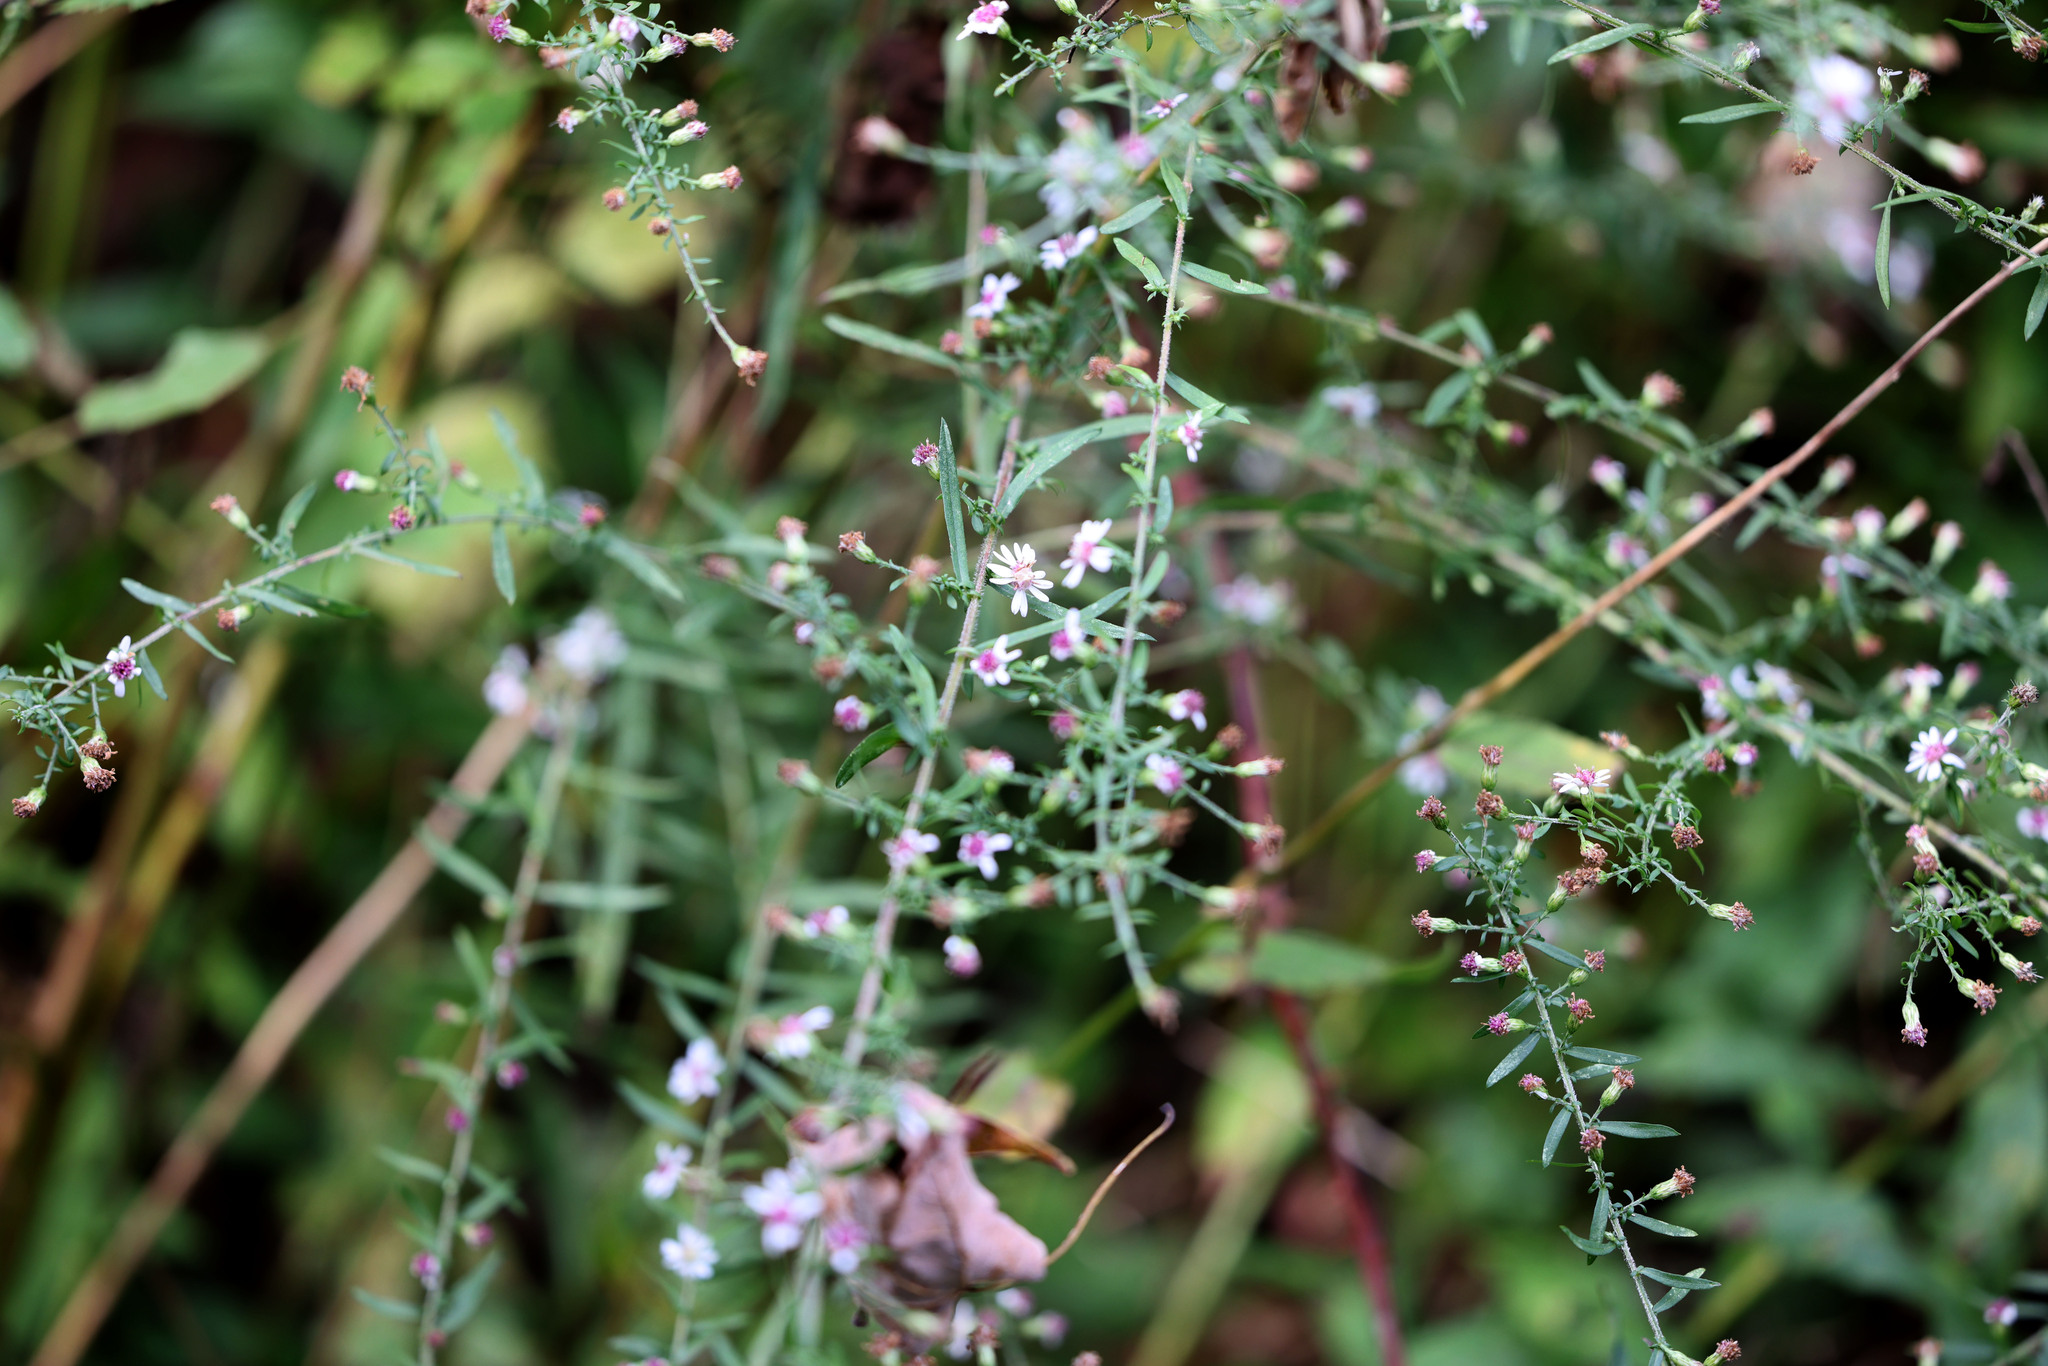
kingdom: Plantae
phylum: Tracheophyta
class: Magnoliopsida
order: Asterales
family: Asteraceae
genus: Symphyotrichum
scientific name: Symphyotrichum lateriflorum
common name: Calico aster
